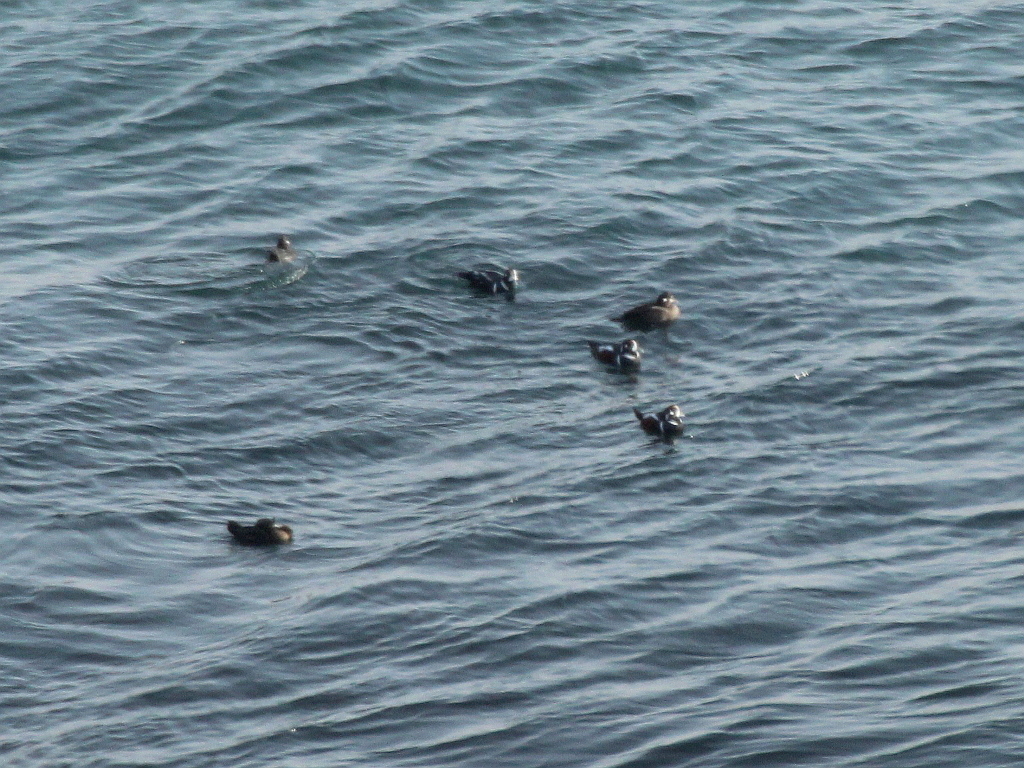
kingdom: Animalia
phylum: Chordata
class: Aves
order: Anseriformes
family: Anatidae
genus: Histrionicus
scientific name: Histrionicus histrionicus
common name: Harlequin duck
